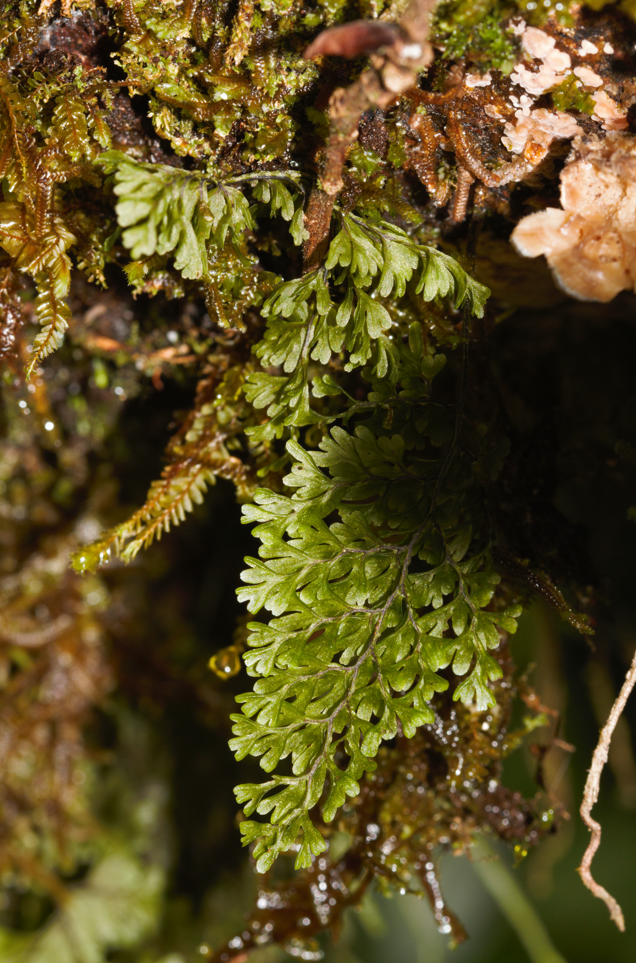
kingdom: Plantae
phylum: Tracheophyta
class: Polypodiopsida
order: Hymenophyllales
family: Hymenophyllaceae
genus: Hymenophyllum
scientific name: Hymenophyllum polyanthos
